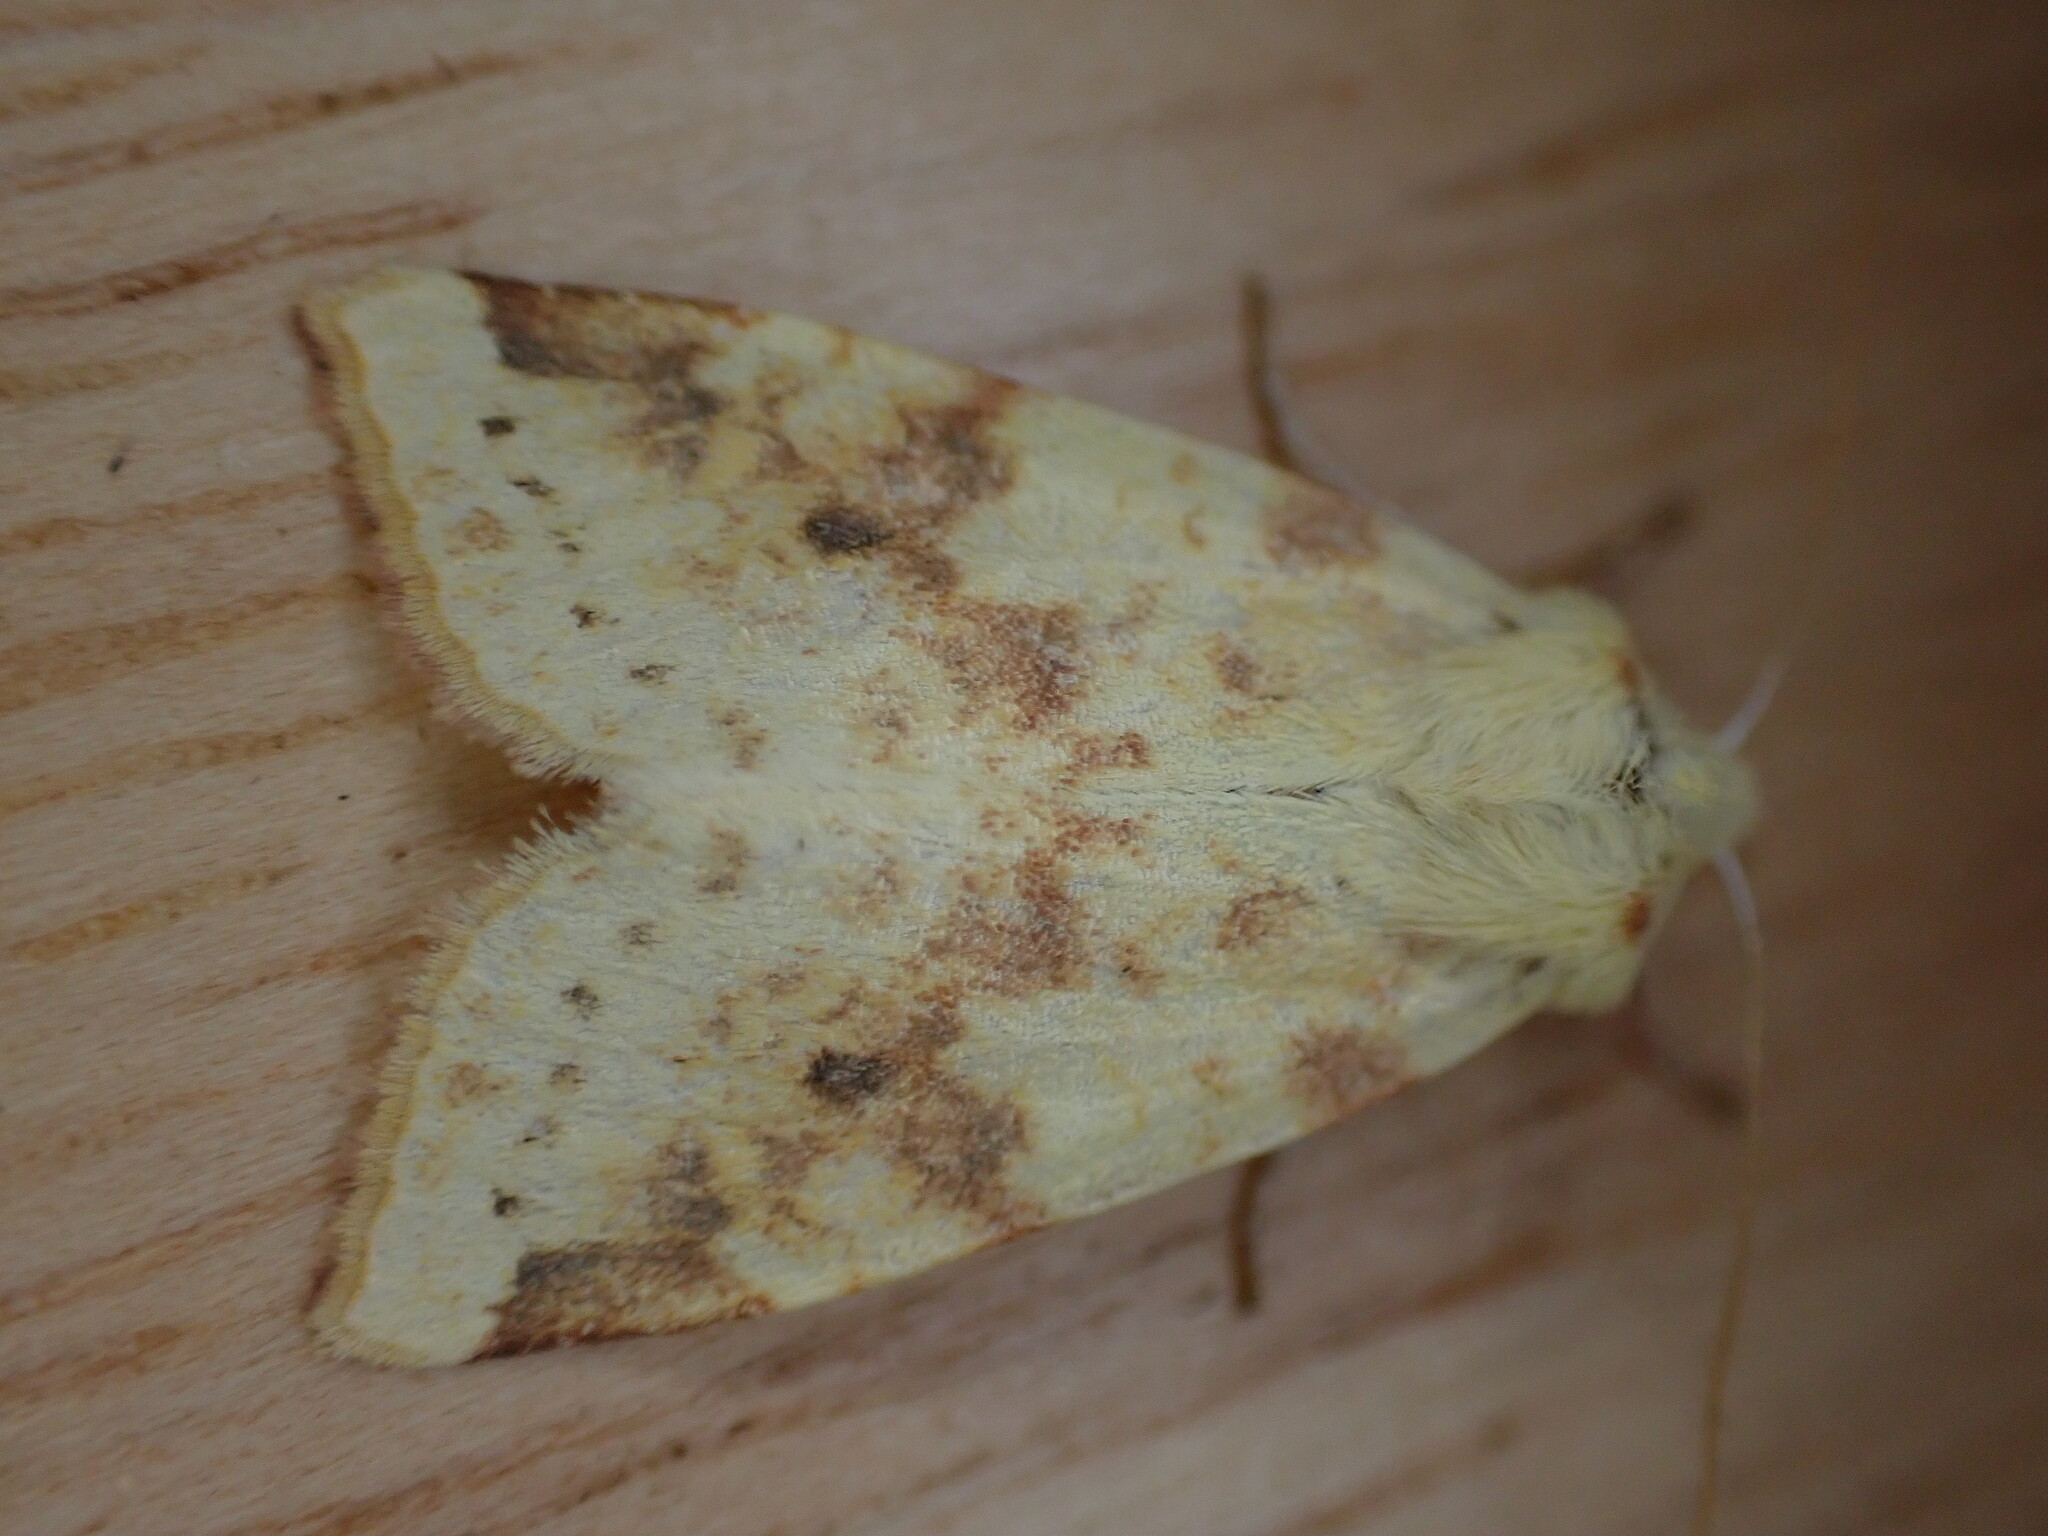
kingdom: Animalia
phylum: Arthropoda
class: Insecta
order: Lepidoptera
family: Noctuidae
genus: Xanthia
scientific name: Xanthia icteritia
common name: The sallow
